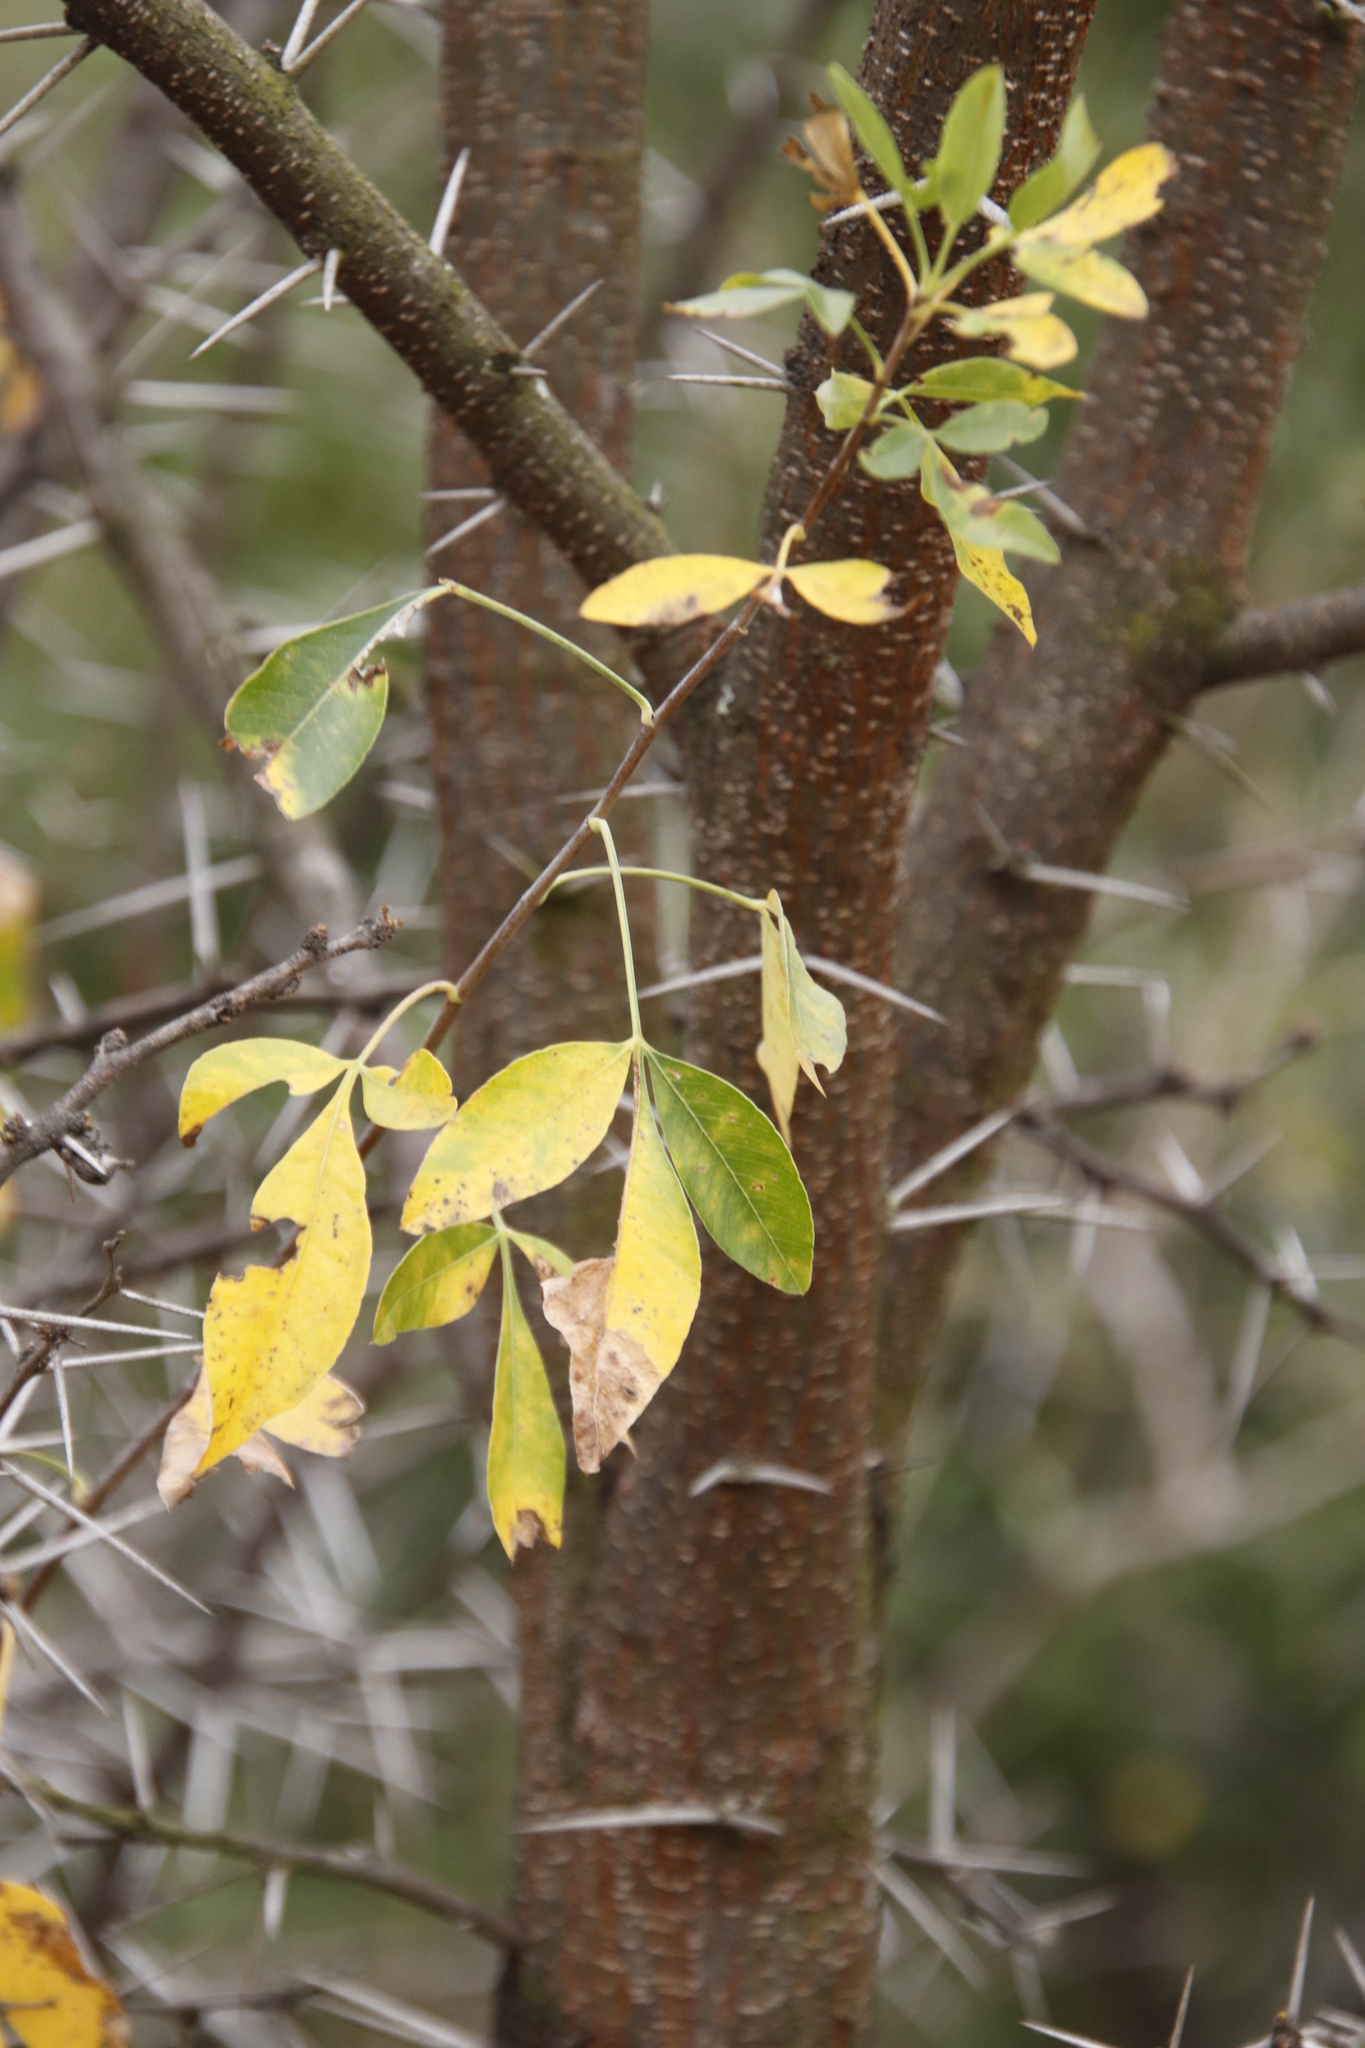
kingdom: Plantae
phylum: Tracheophyta
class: Magnoliopsida
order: Apiales
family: Apiaceae
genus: Heteromorpha
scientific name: Heteromorpha arborescens
